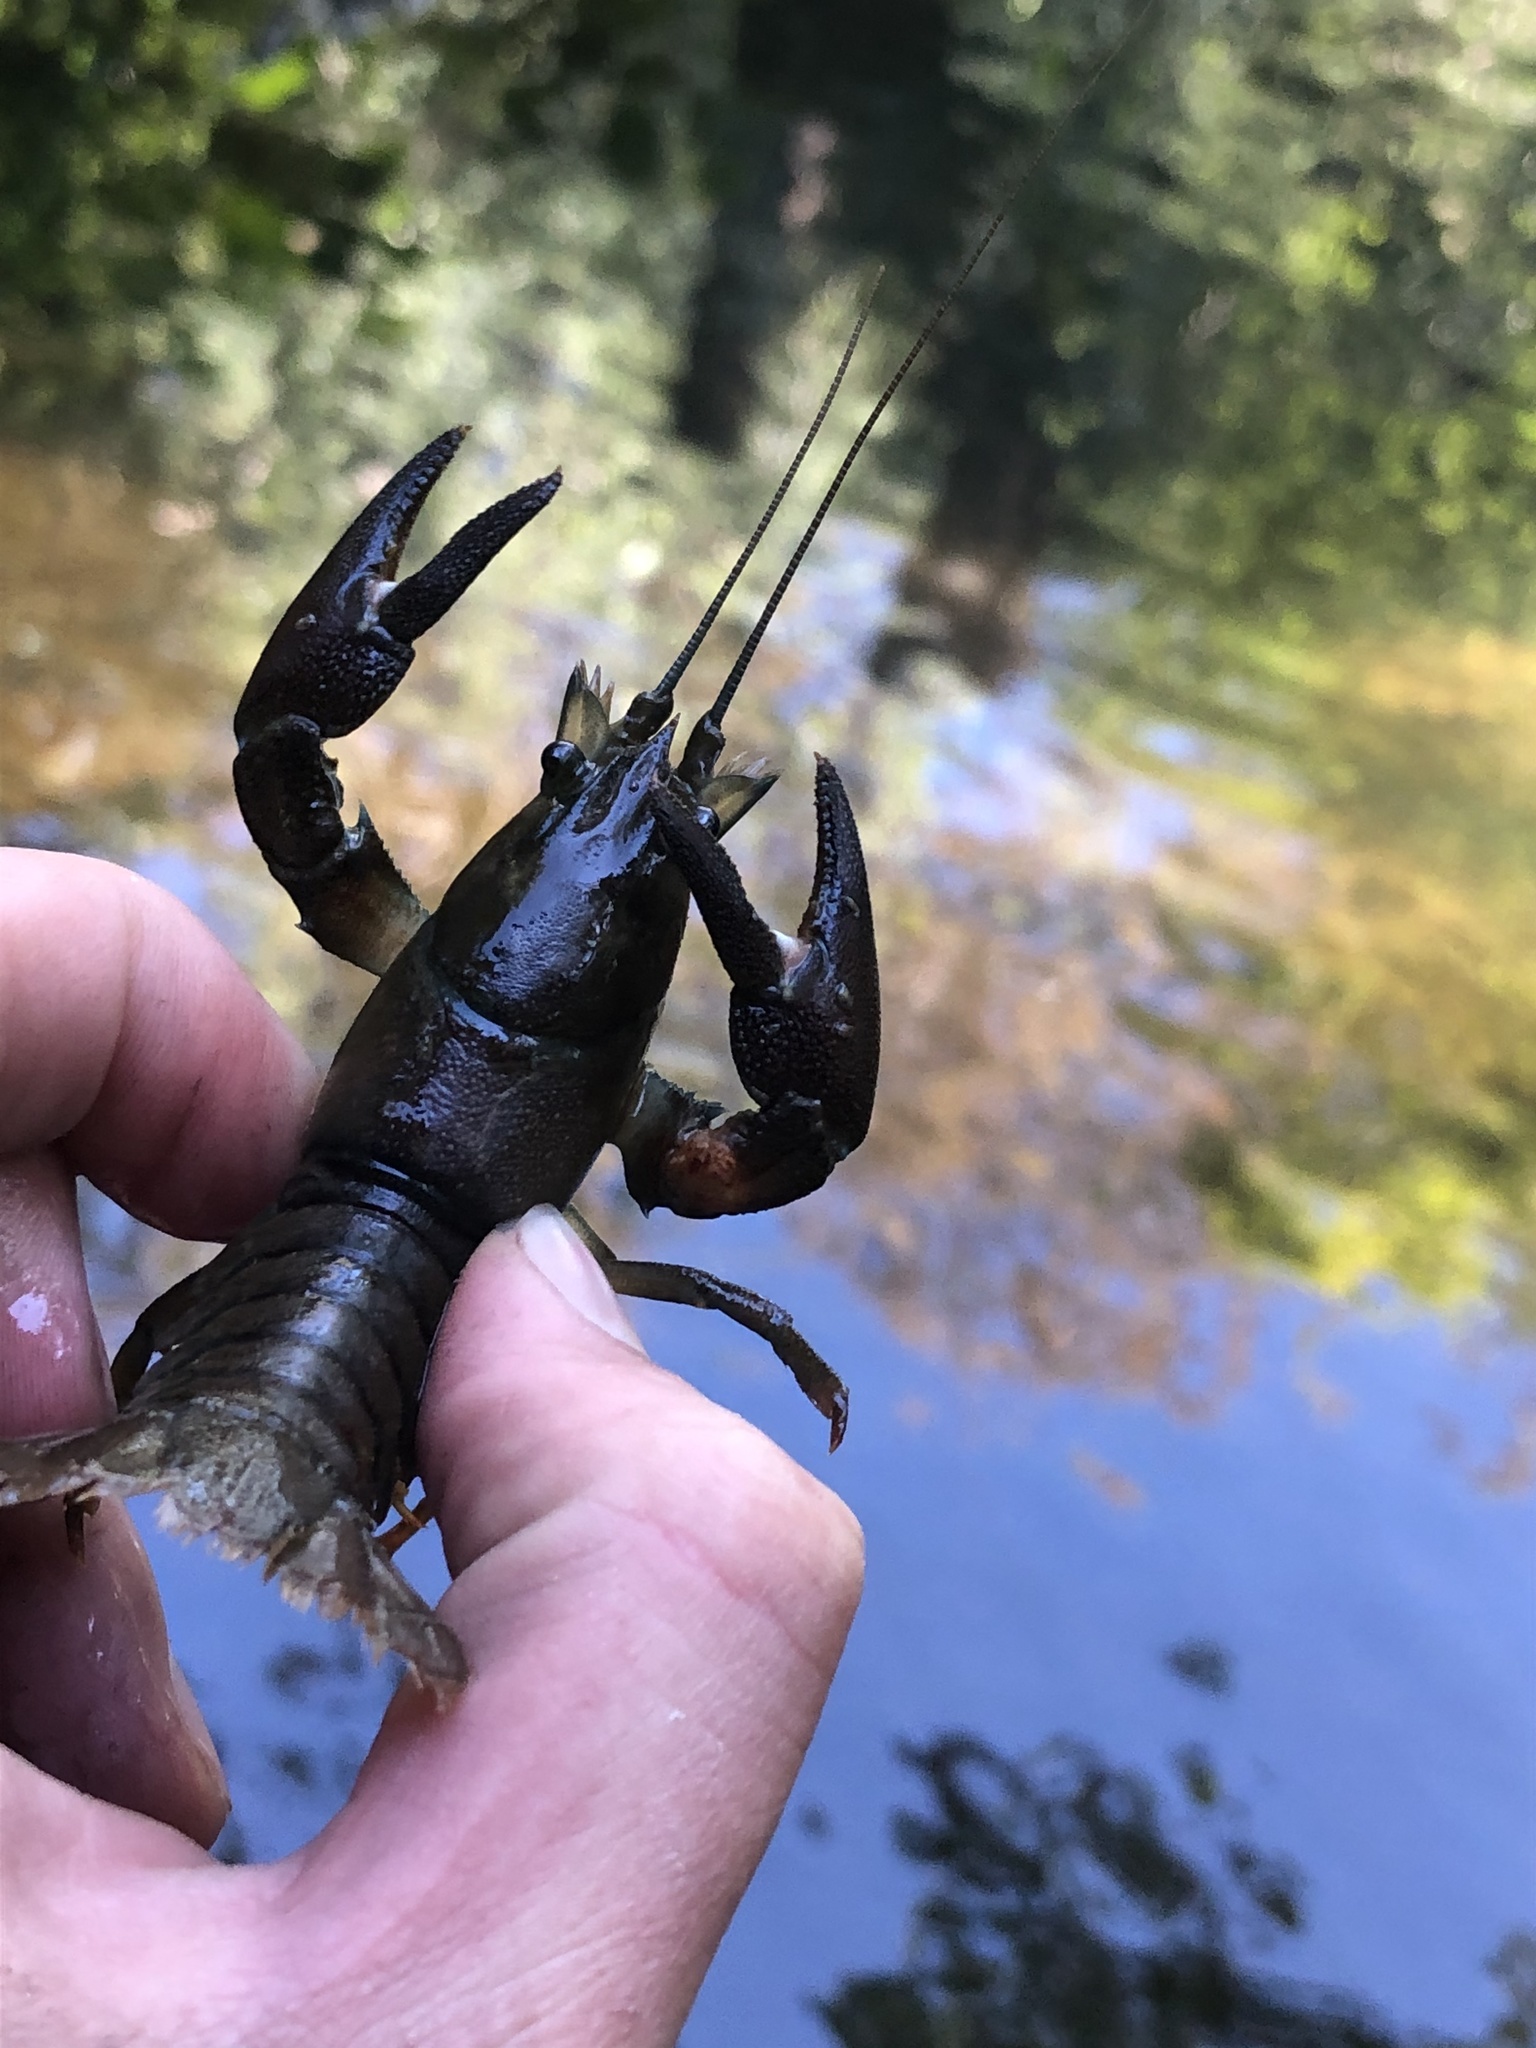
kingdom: Animalia
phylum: Arthropoda
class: Malacostraca
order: Decapoda
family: Astacidae
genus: Pacifastacus
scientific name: Pacifastacus leniusculus
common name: Signal crayfish
